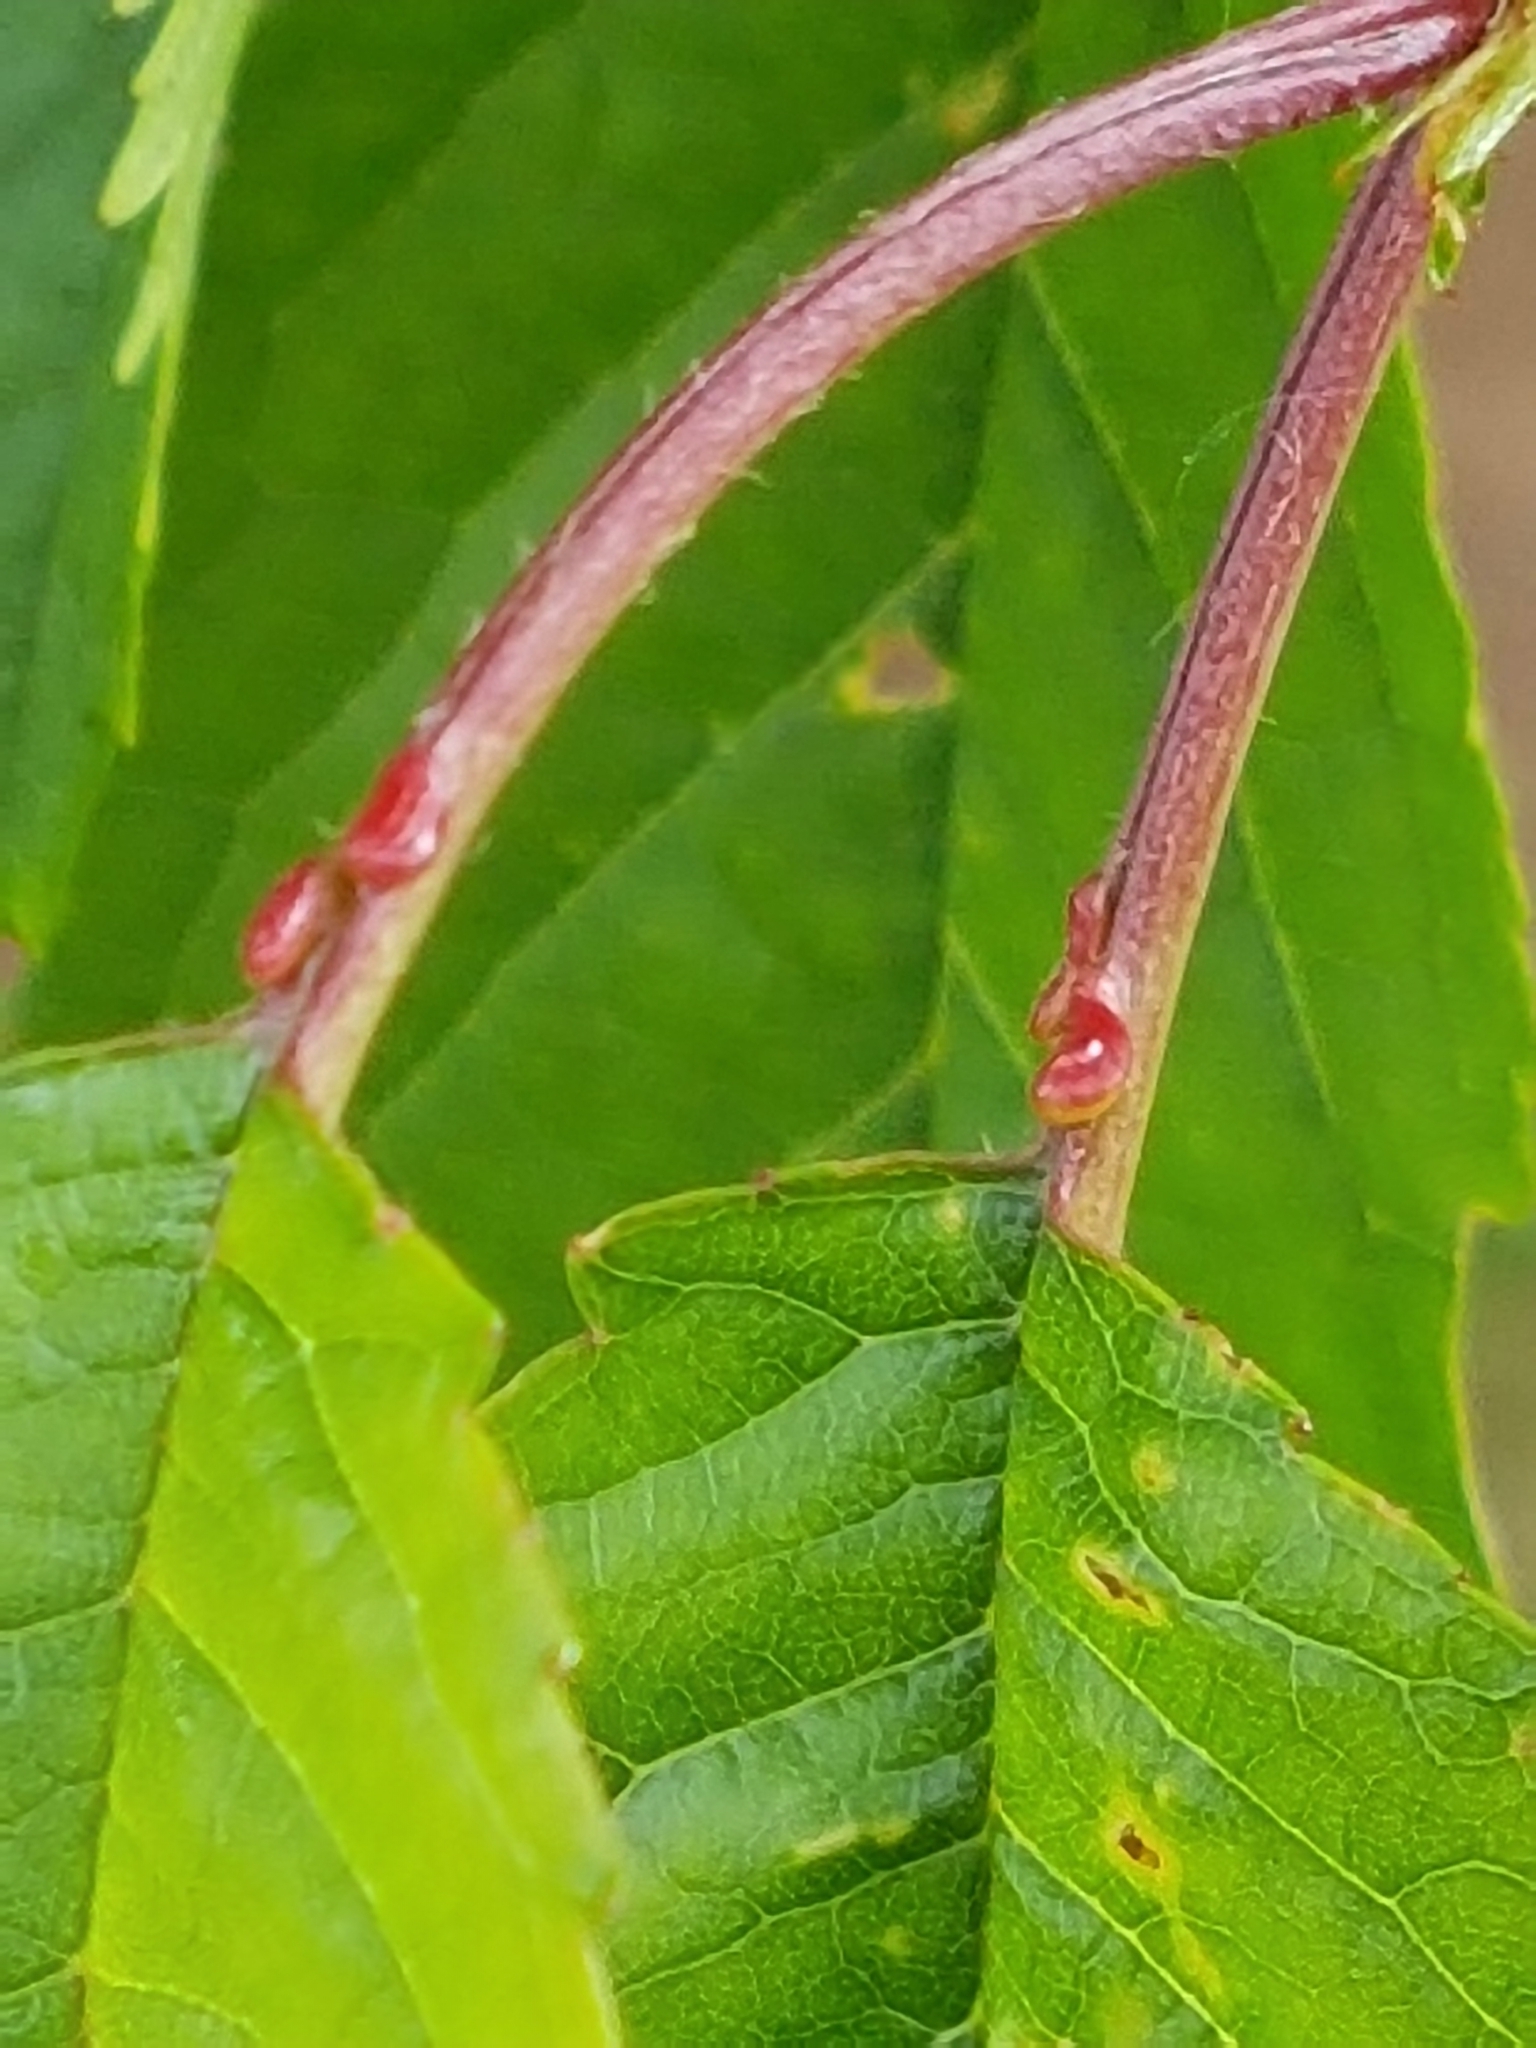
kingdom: Plantae
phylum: Tracheophyta
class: Magnoliopsida
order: Rosales
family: Rosaceae
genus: Prunus
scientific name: Prunus avium
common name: Sweet cherry
